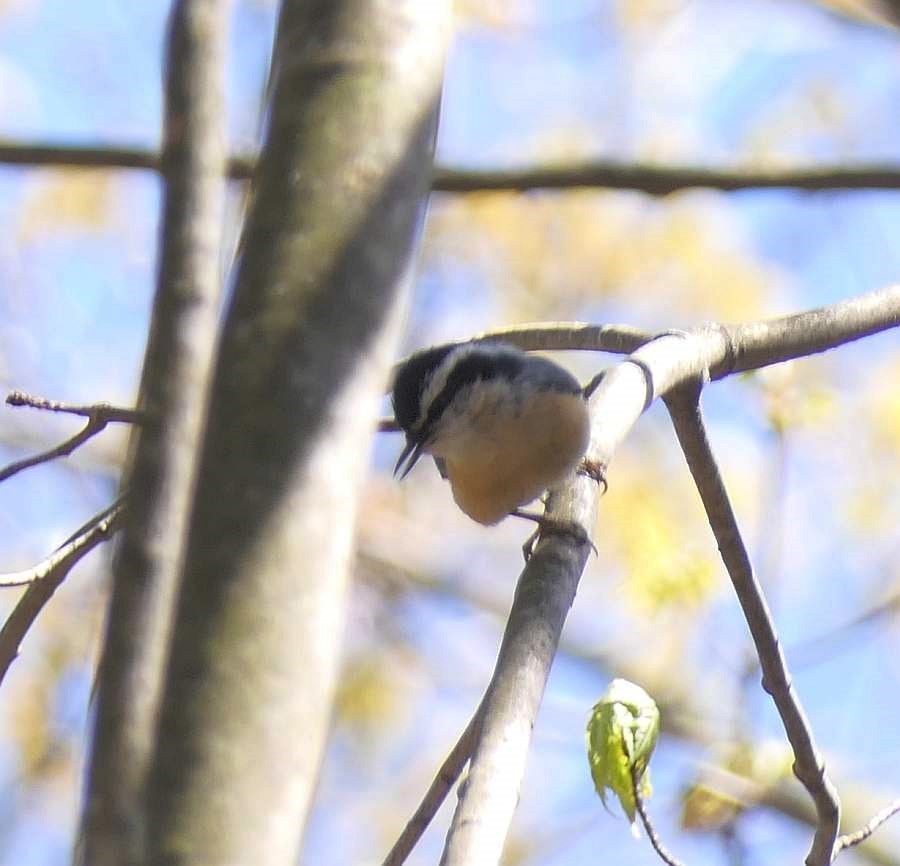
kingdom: Animalia
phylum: Chordata
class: Aves
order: Passeriformes
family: Sittidae
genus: Sitta
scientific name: Sitta canadensis
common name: Red-breasted nuthatch
